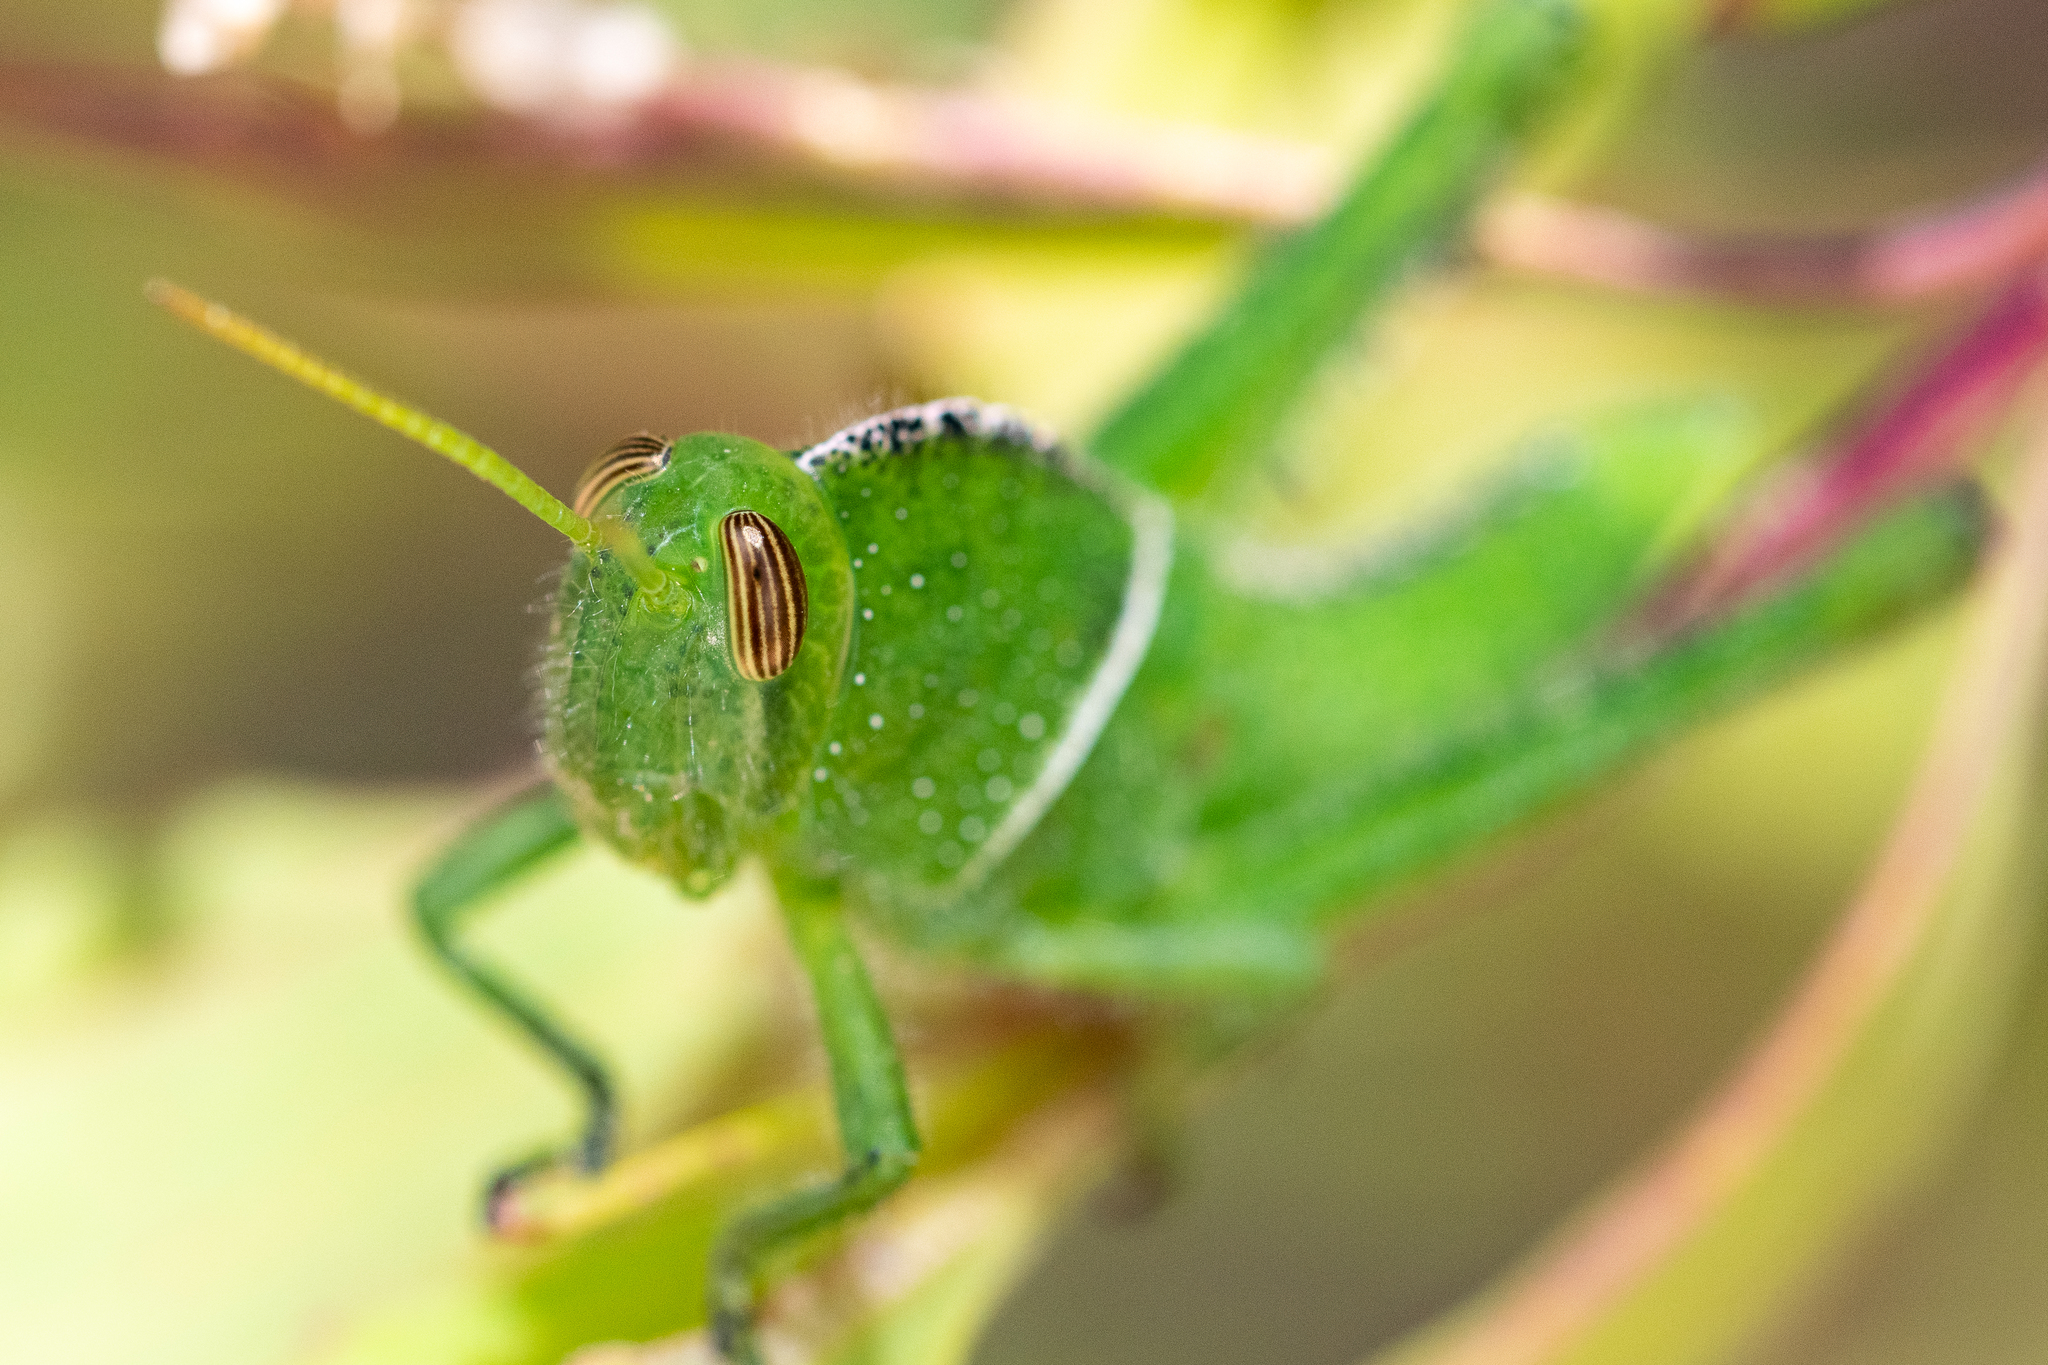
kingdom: Animalia
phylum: Arthropoda
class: Insecta
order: Orthoptera
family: Acrididae
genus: Acanthacris
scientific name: Acanthacris ruficornis
